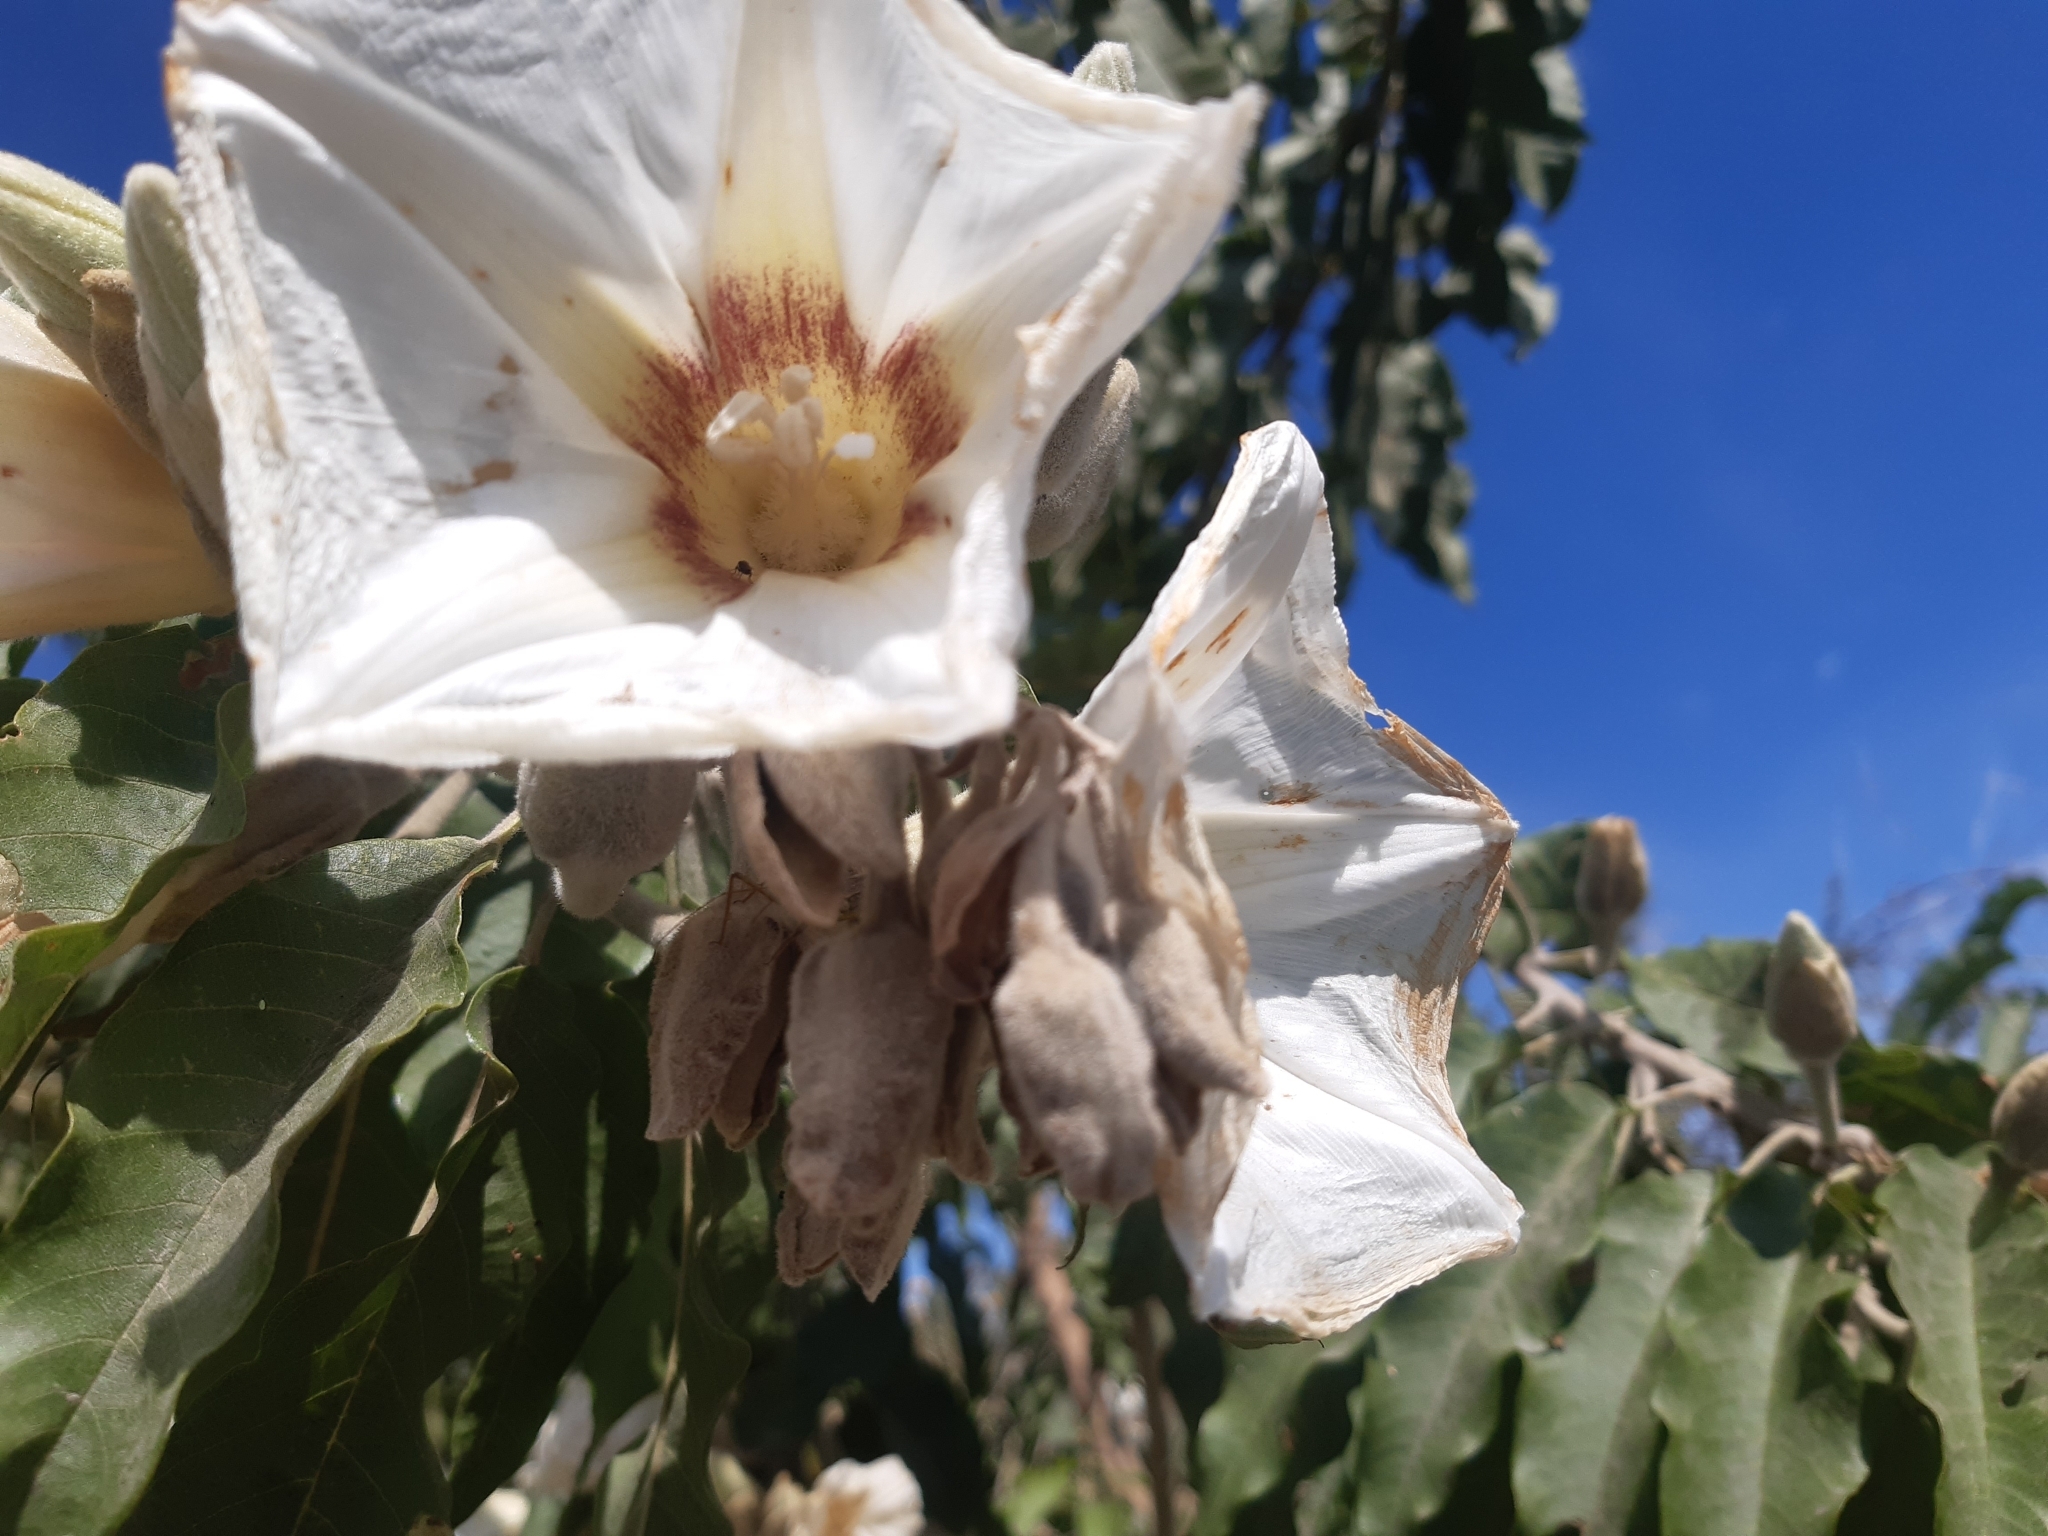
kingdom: Plantae
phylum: Tracheophyta
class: Magnoliopsida
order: Solanales
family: Convolvulaceae
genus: Ipomoea
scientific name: Ipomoea murucoides
